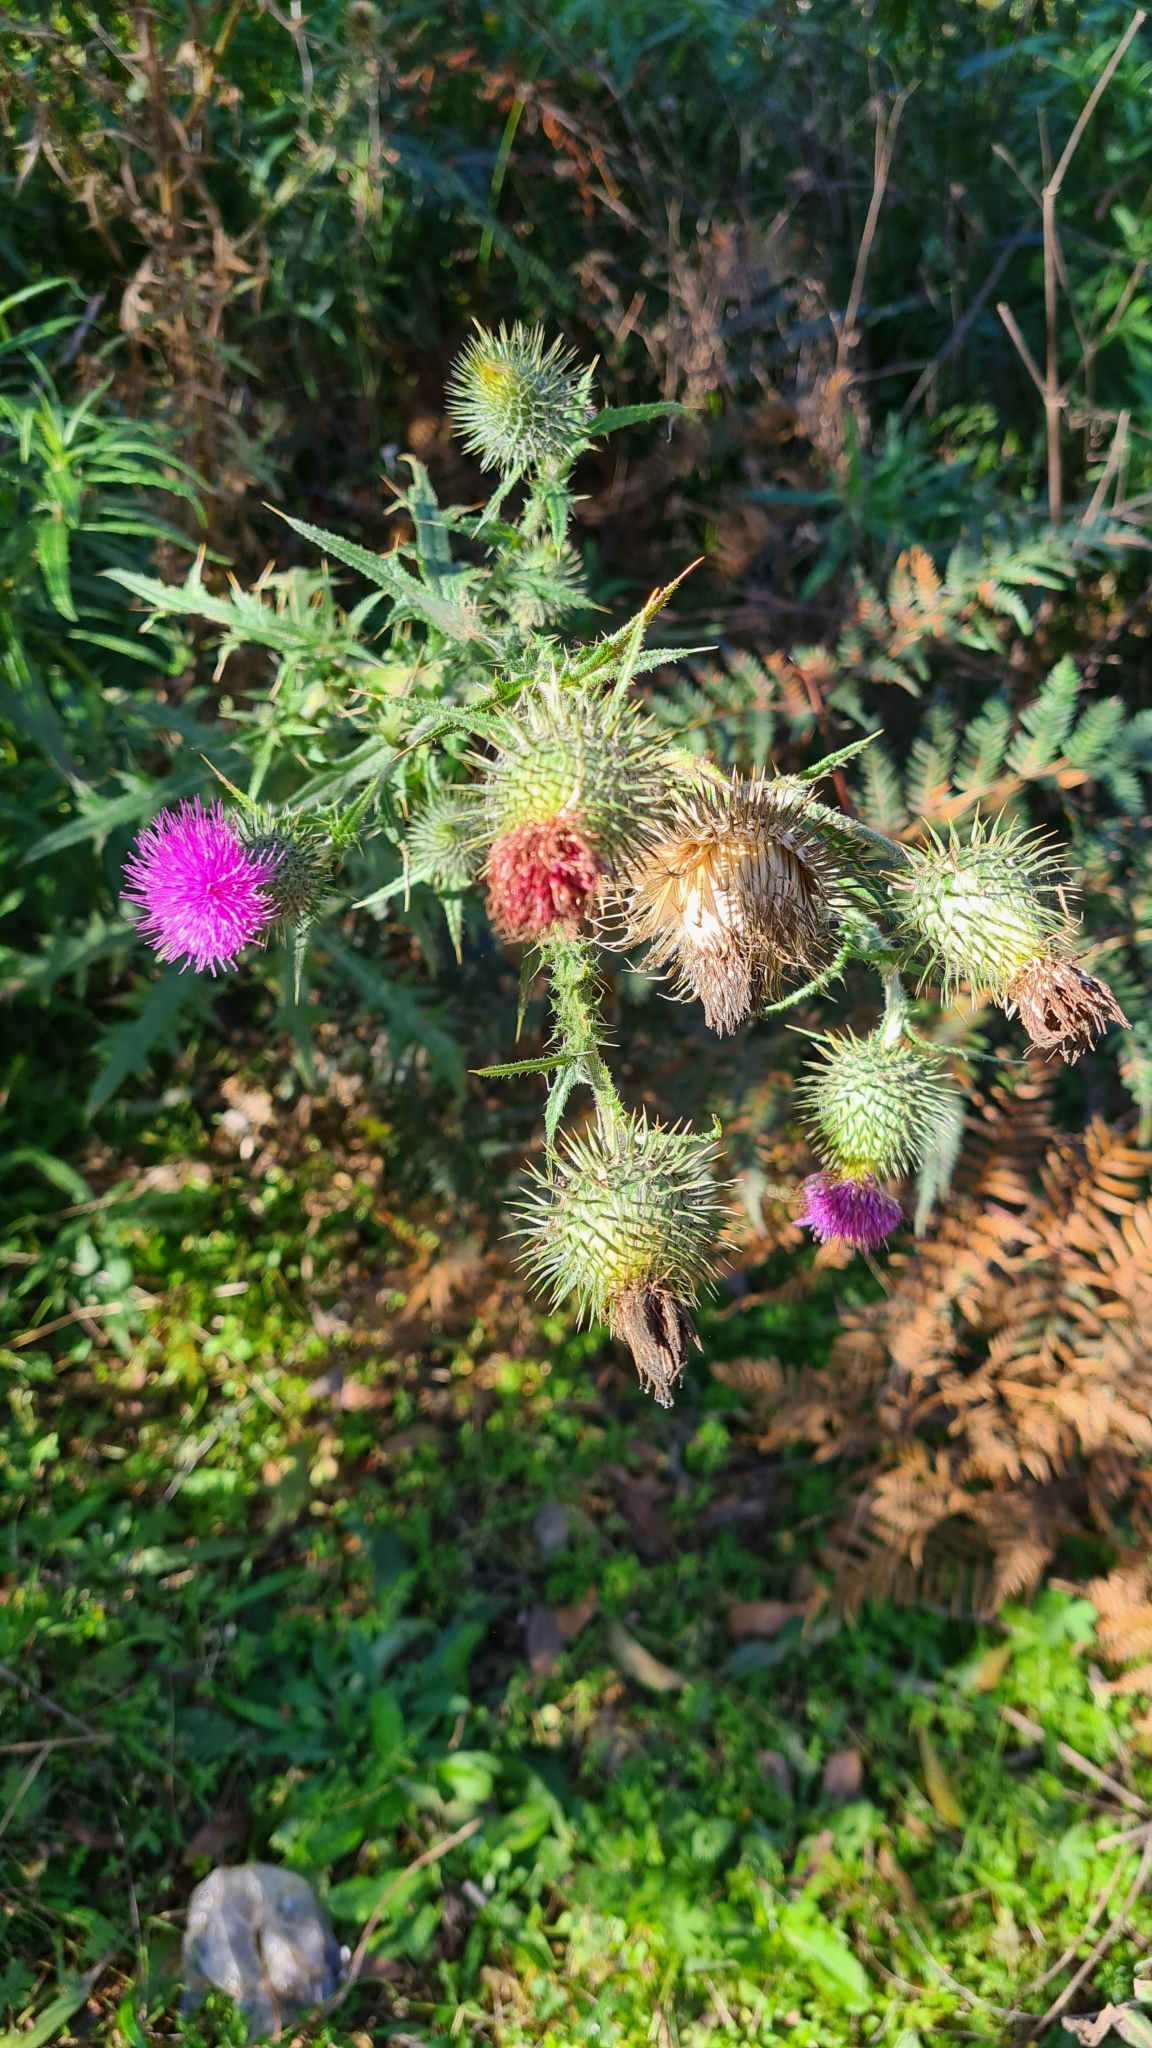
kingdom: Plantae
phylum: Tracheophyta
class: Magnoliopsida
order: Asterales
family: Asteraceae
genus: Cirsium
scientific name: Cirsium vulgare
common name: Bull thistle
